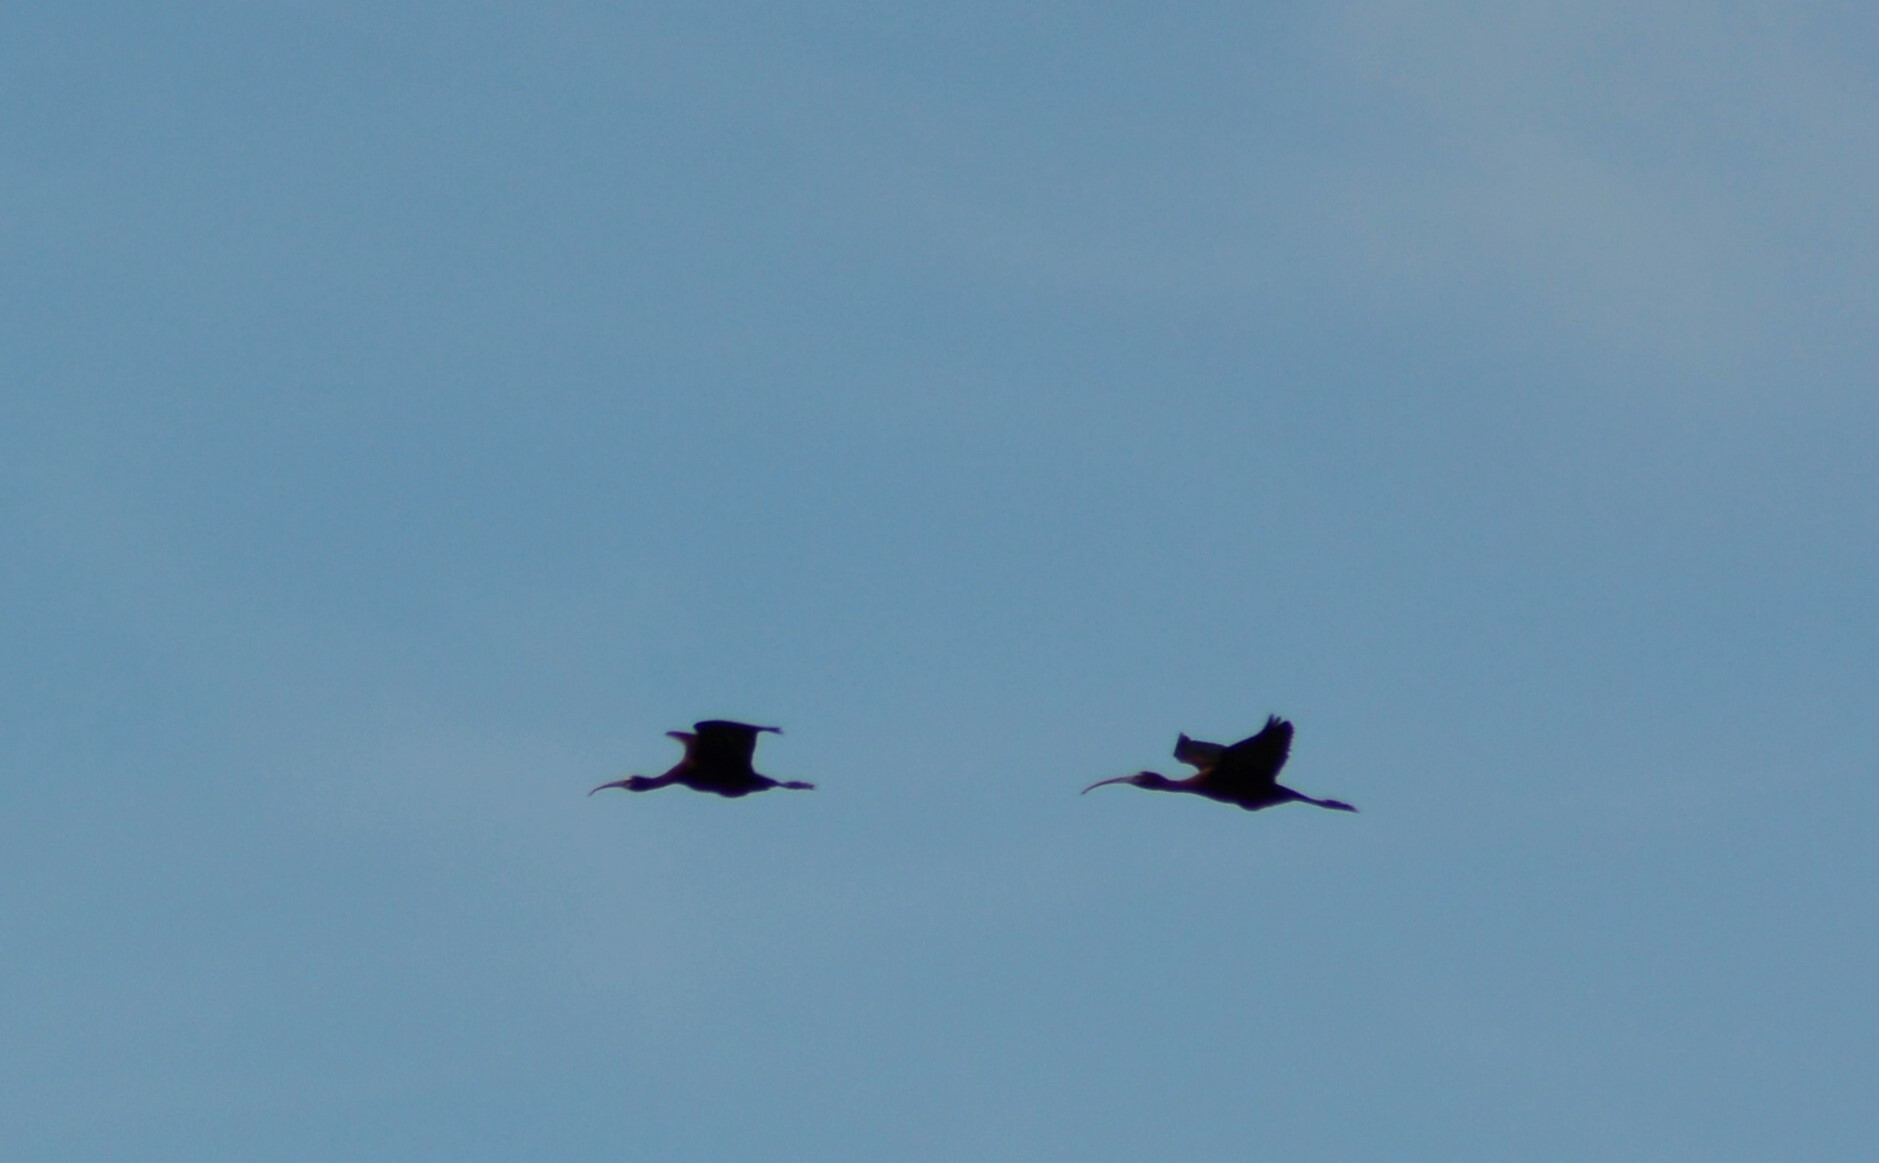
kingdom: Animalia
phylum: Chordata
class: Aves
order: Pelecaniformes
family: Threskiornithidae
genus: Plegadis
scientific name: Plegadis chihi
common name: White-faced ibis
